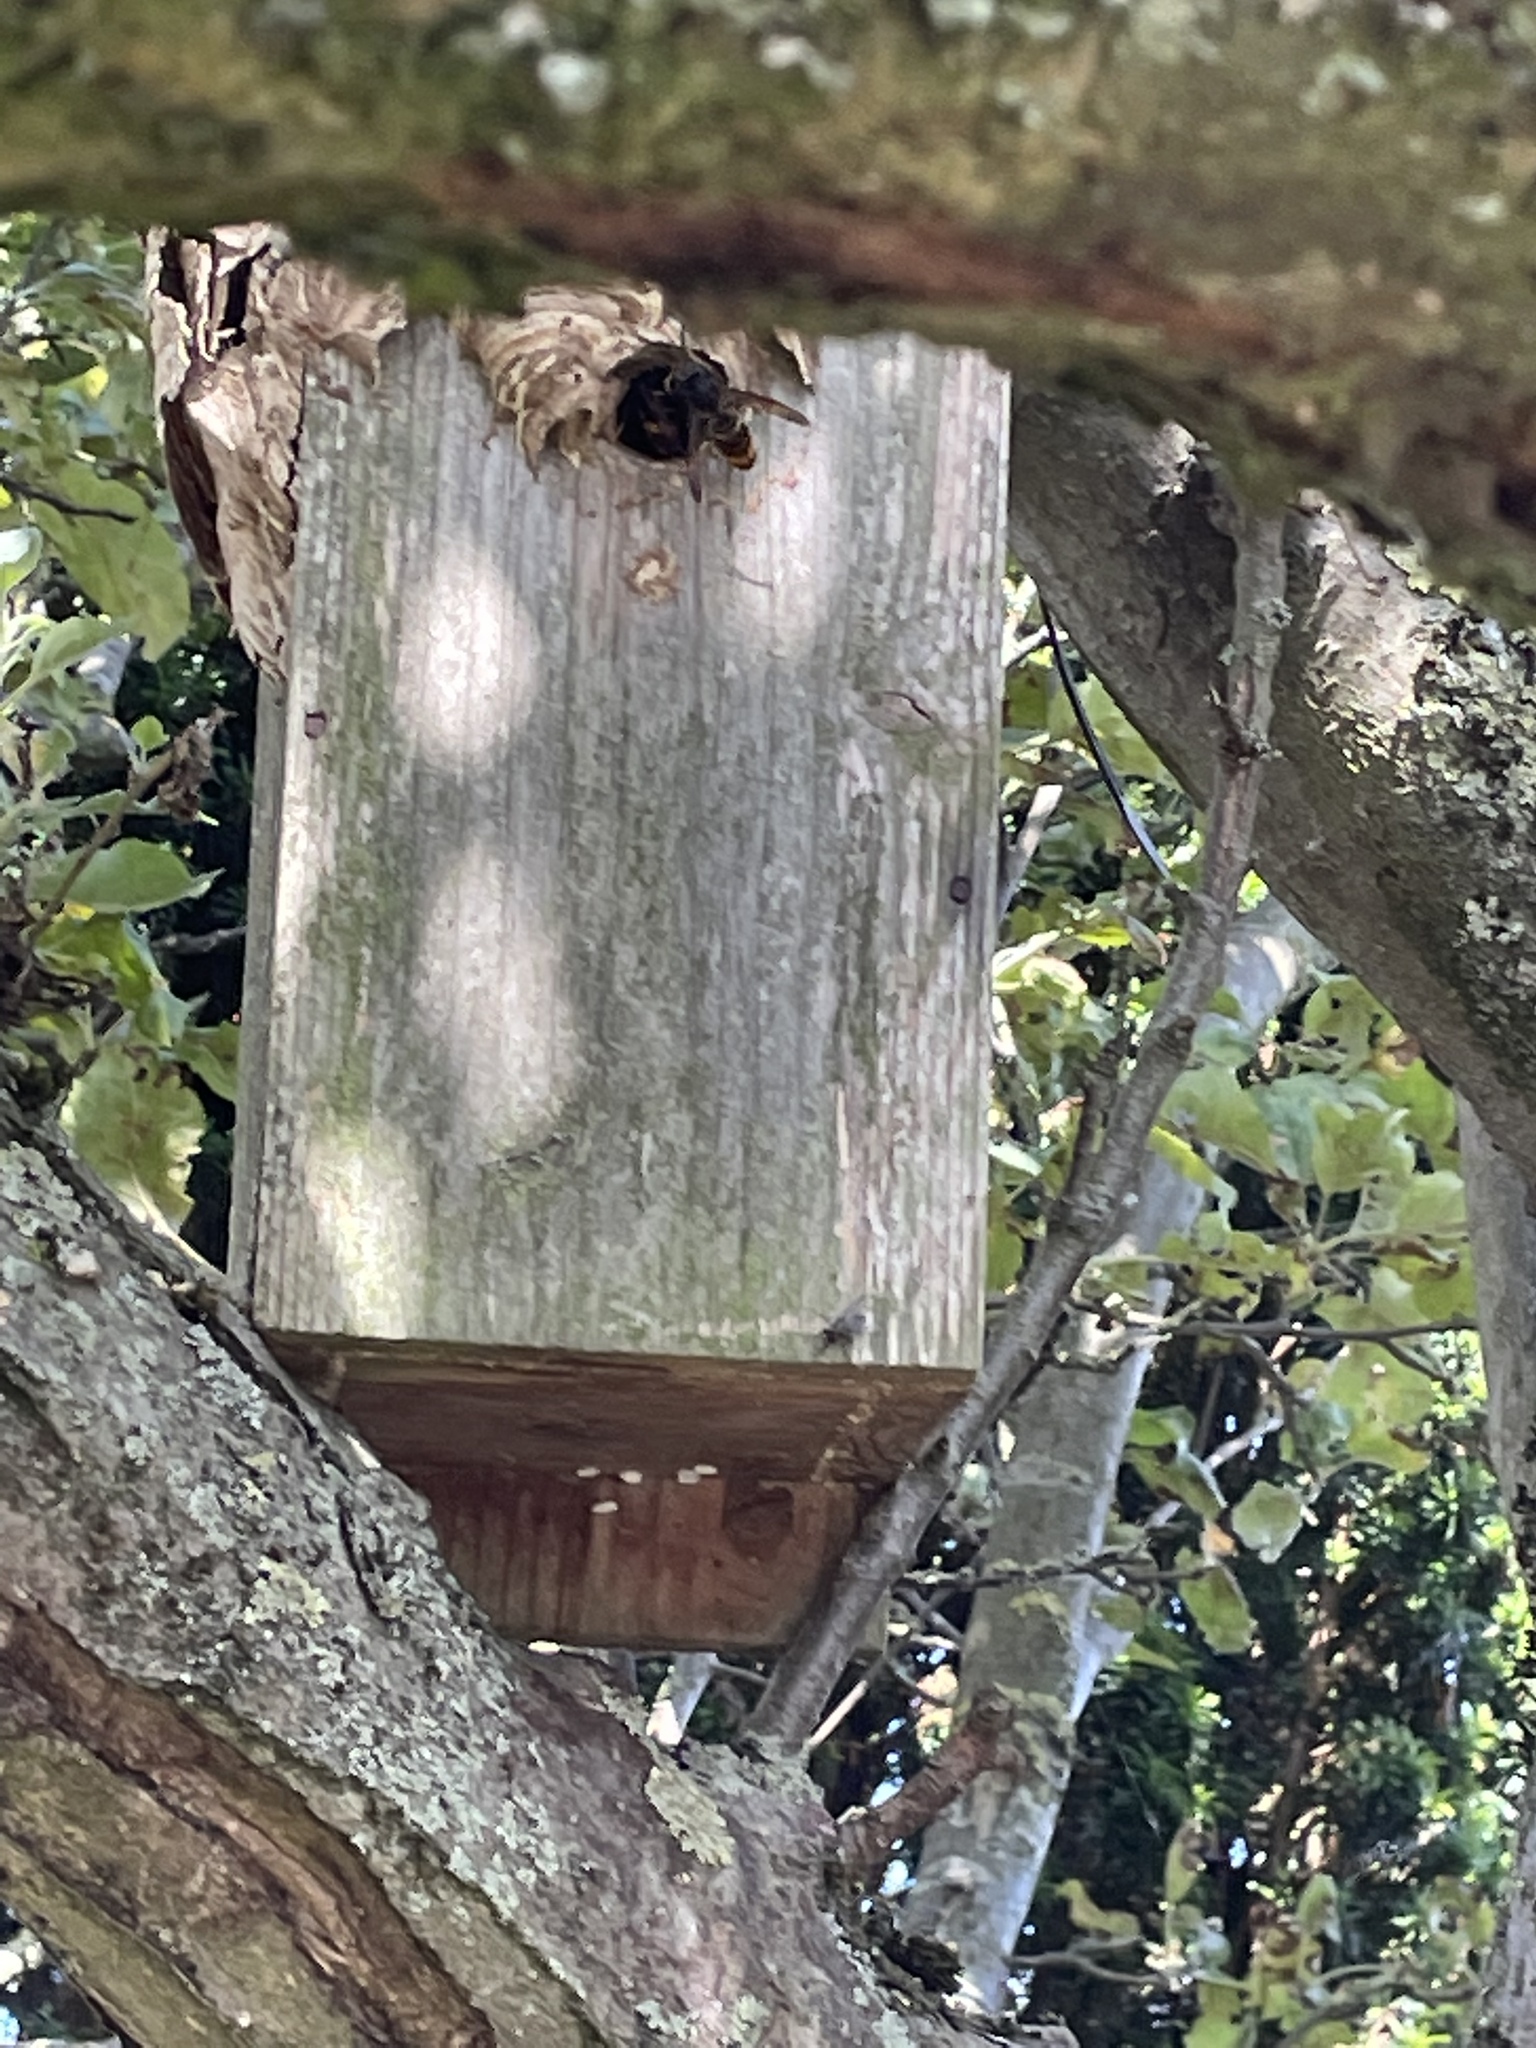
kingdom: Animalia
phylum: Arthropoda
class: Insecta
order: Hymenoptera
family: Vespidae
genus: Vespa
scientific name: Vespa velutina
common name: Asian hornet
